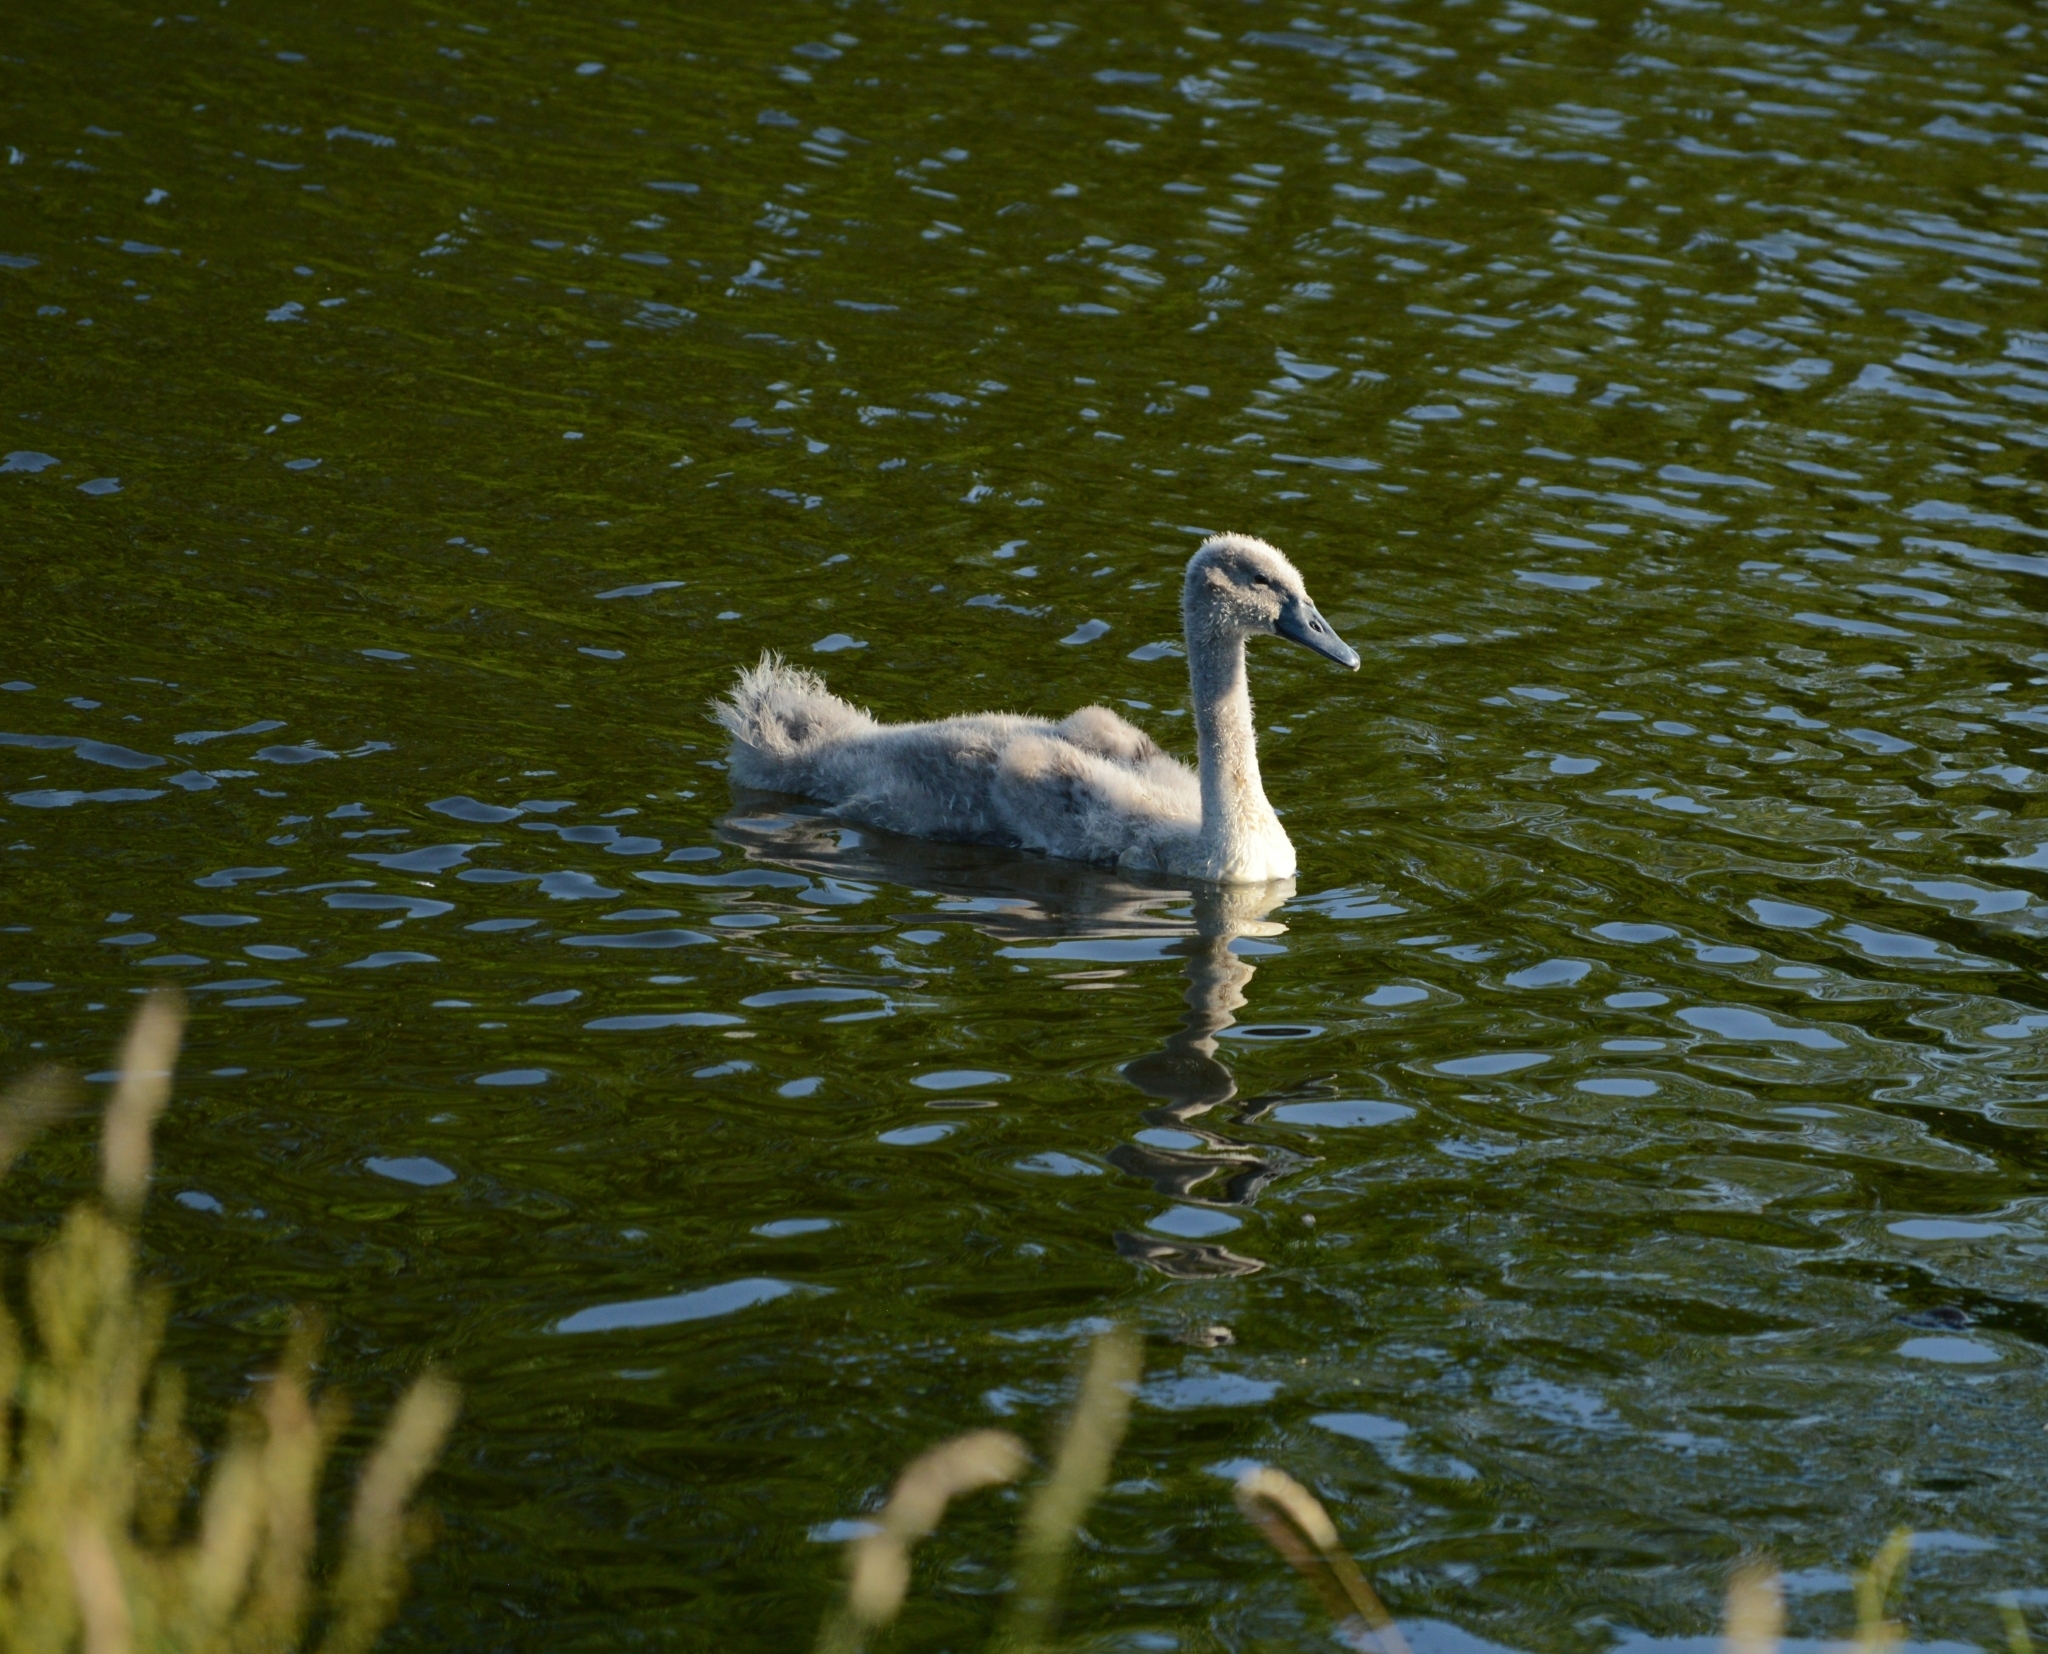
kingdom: Animalia
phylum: Chordata
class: Aves
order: Anseriformes
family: Anatidae
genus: Cygnus
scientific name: Cygnus olor
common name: Mute swan
